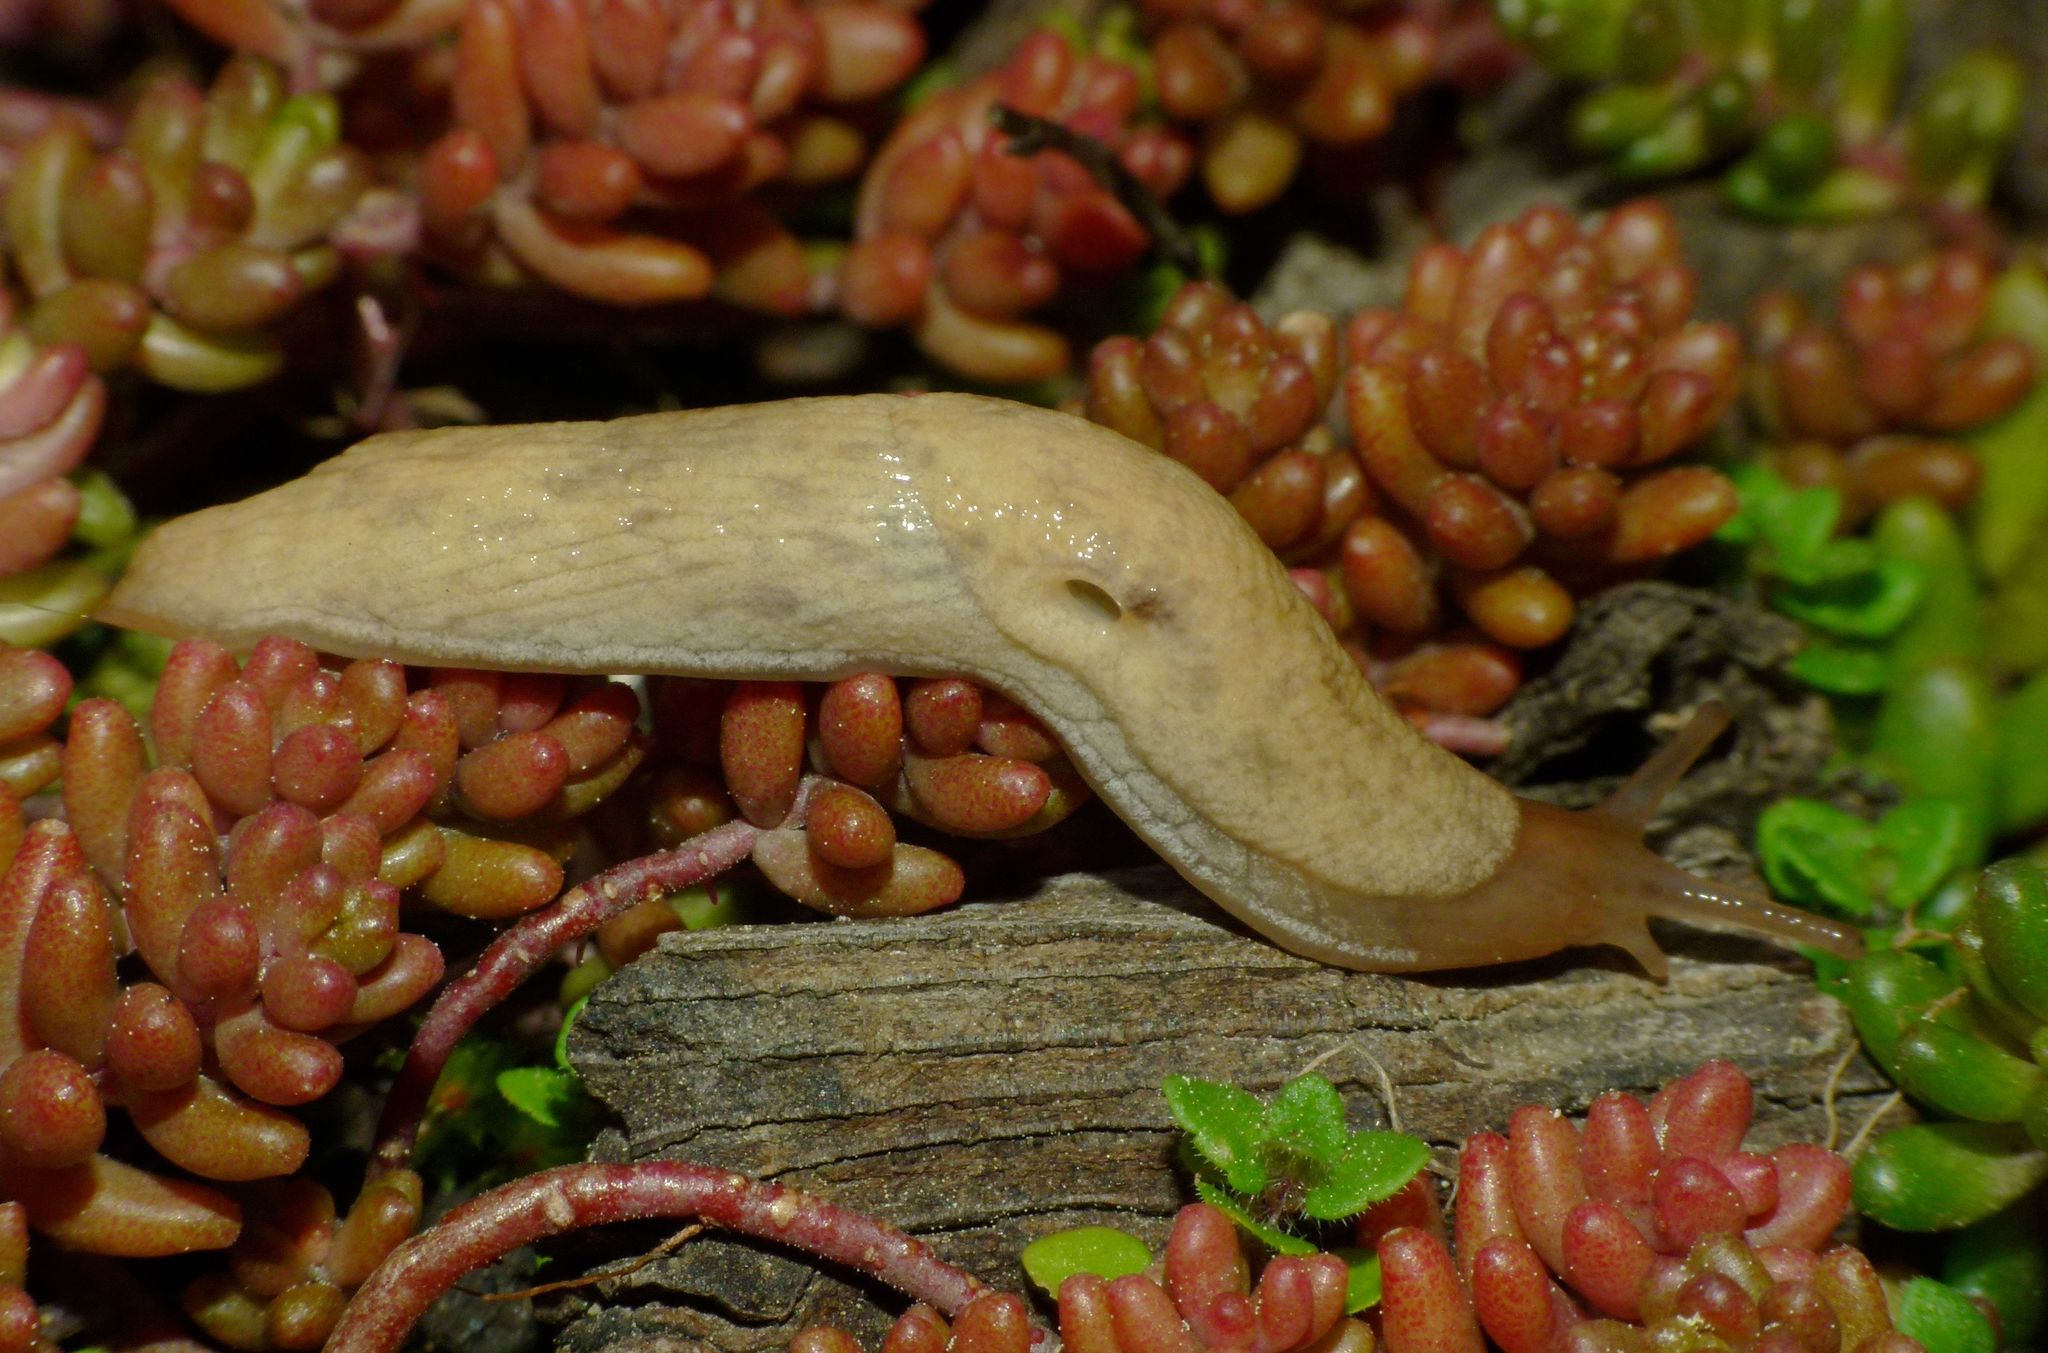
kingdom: Animalia
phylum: Mollusca
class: Gastropoda
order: Stylommatophora
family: Agriolimacidae
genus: Deroceras
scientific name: Deroceras reticulatum
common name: Gray field slug
